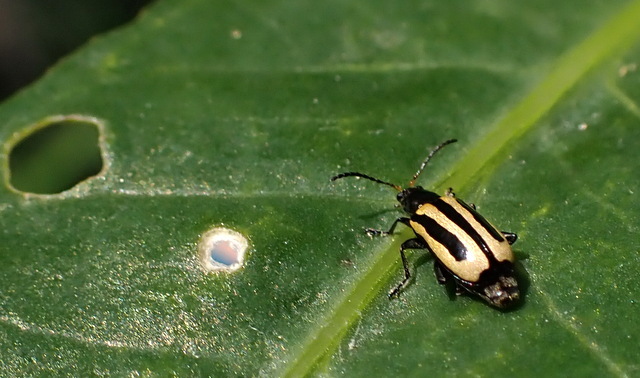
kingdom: Animalia
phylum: Arthropoda
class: Insecta
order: Coleoptera
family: Chrysomelidae
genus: Agasicles
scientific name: Agasicles hygrophila
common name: Alligatorweed flea beetle
